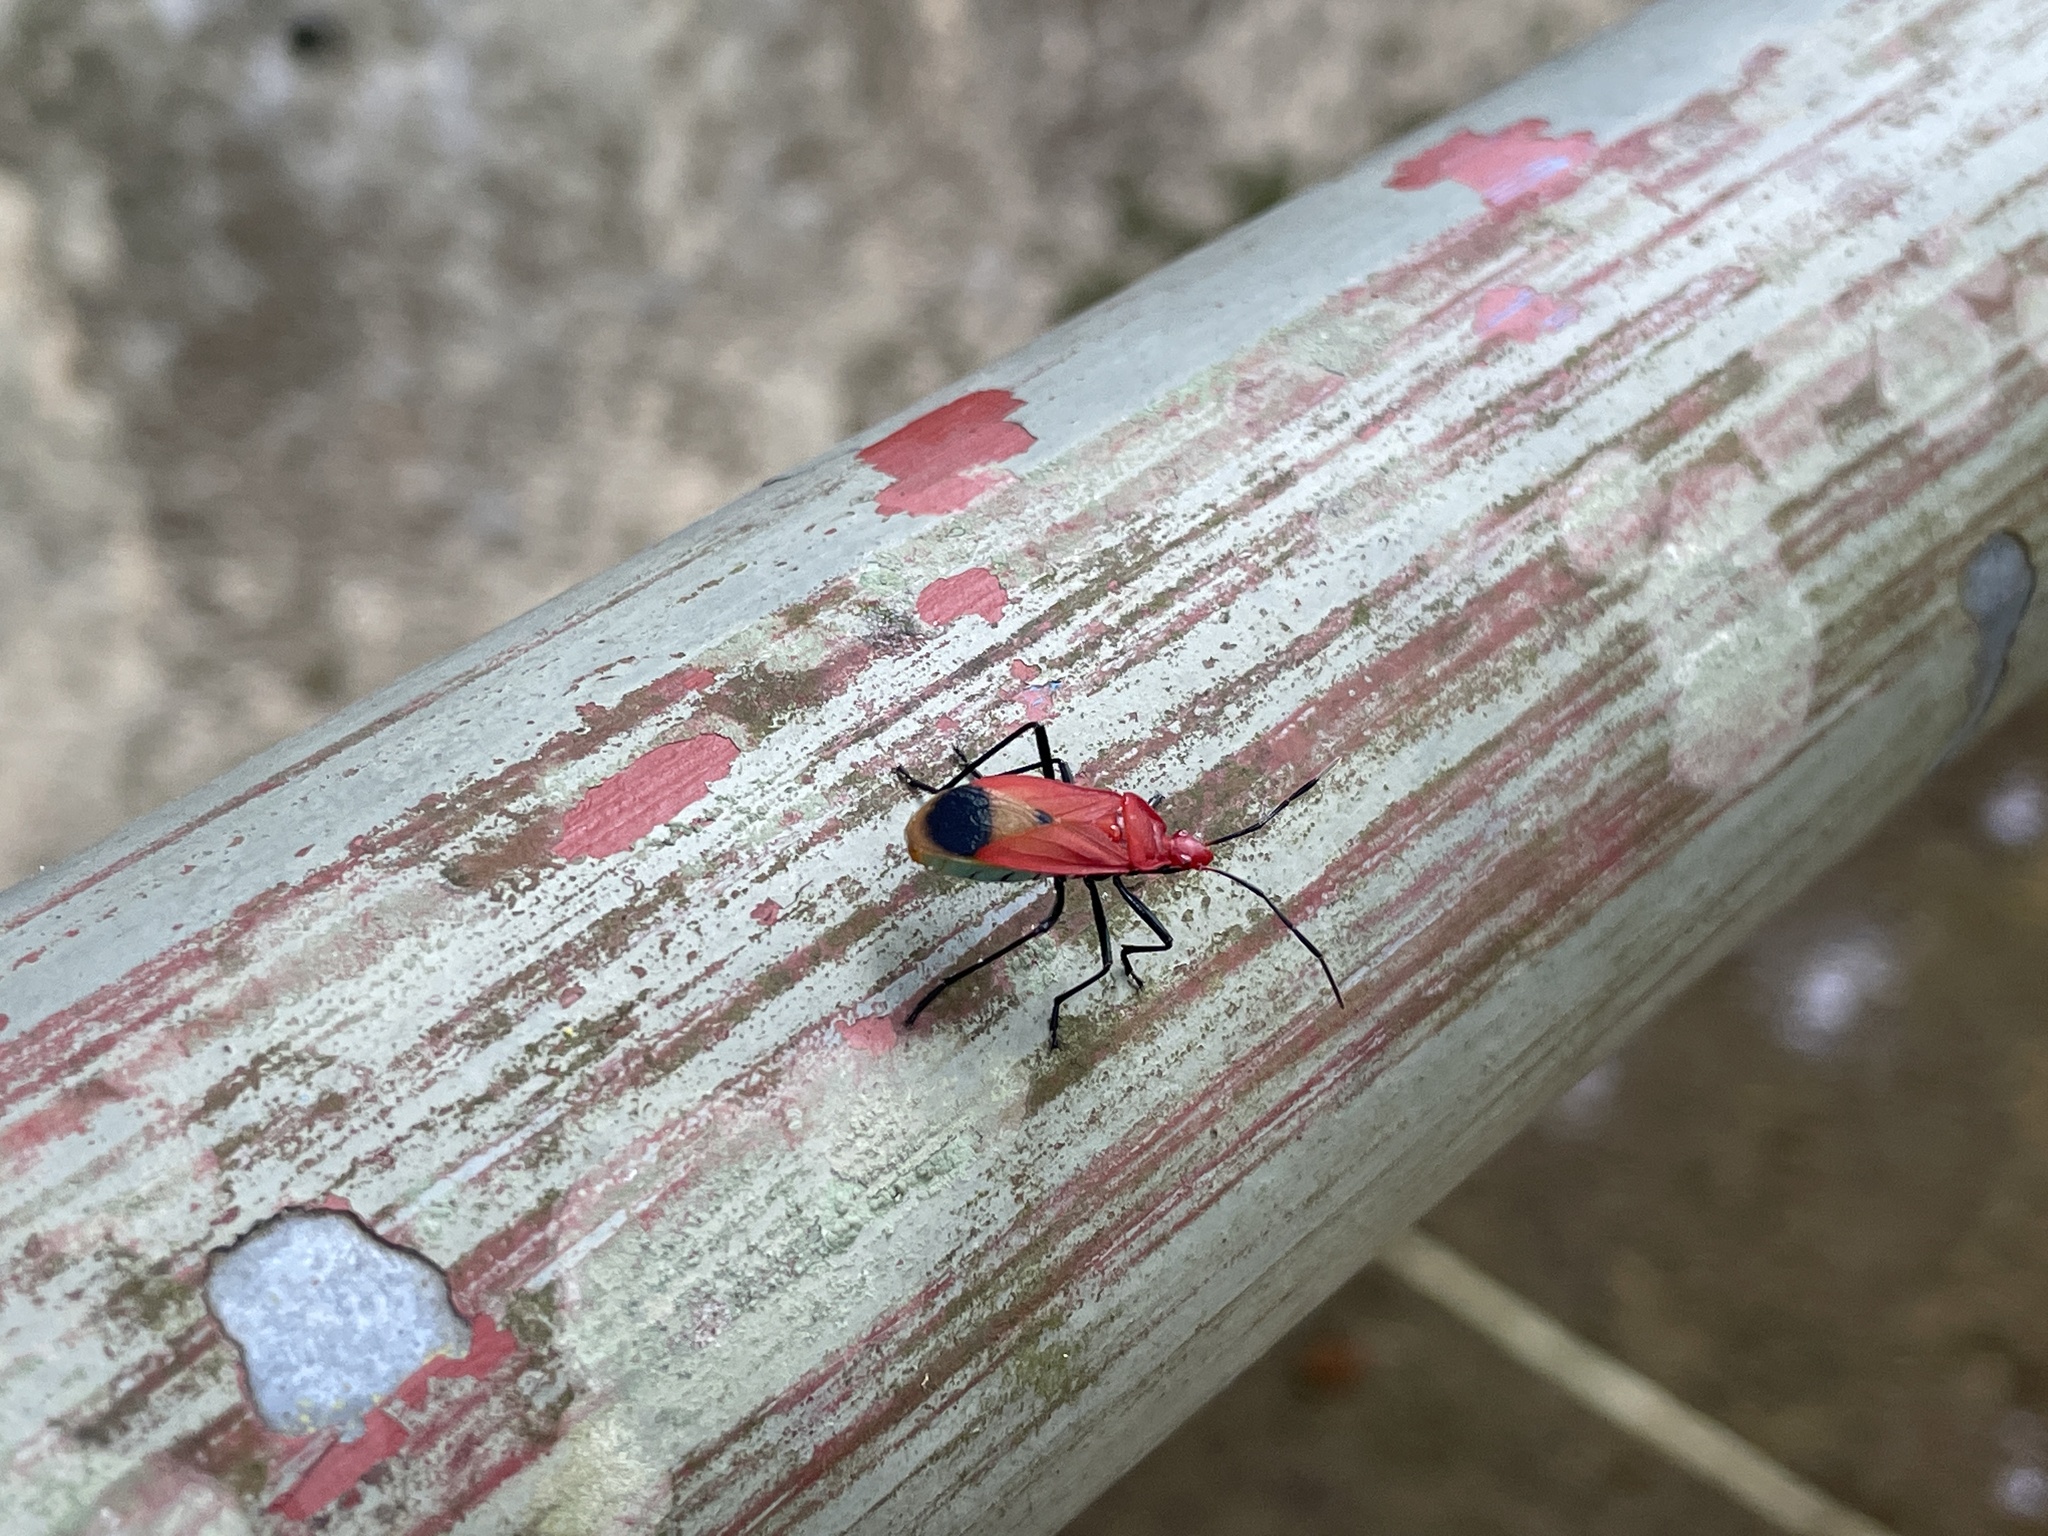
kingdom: Animalia
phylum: Arthropoda
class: Insecta
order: Hemiptera
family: Pyrrhocoridae
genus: Dindymus
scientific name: Dindymus
